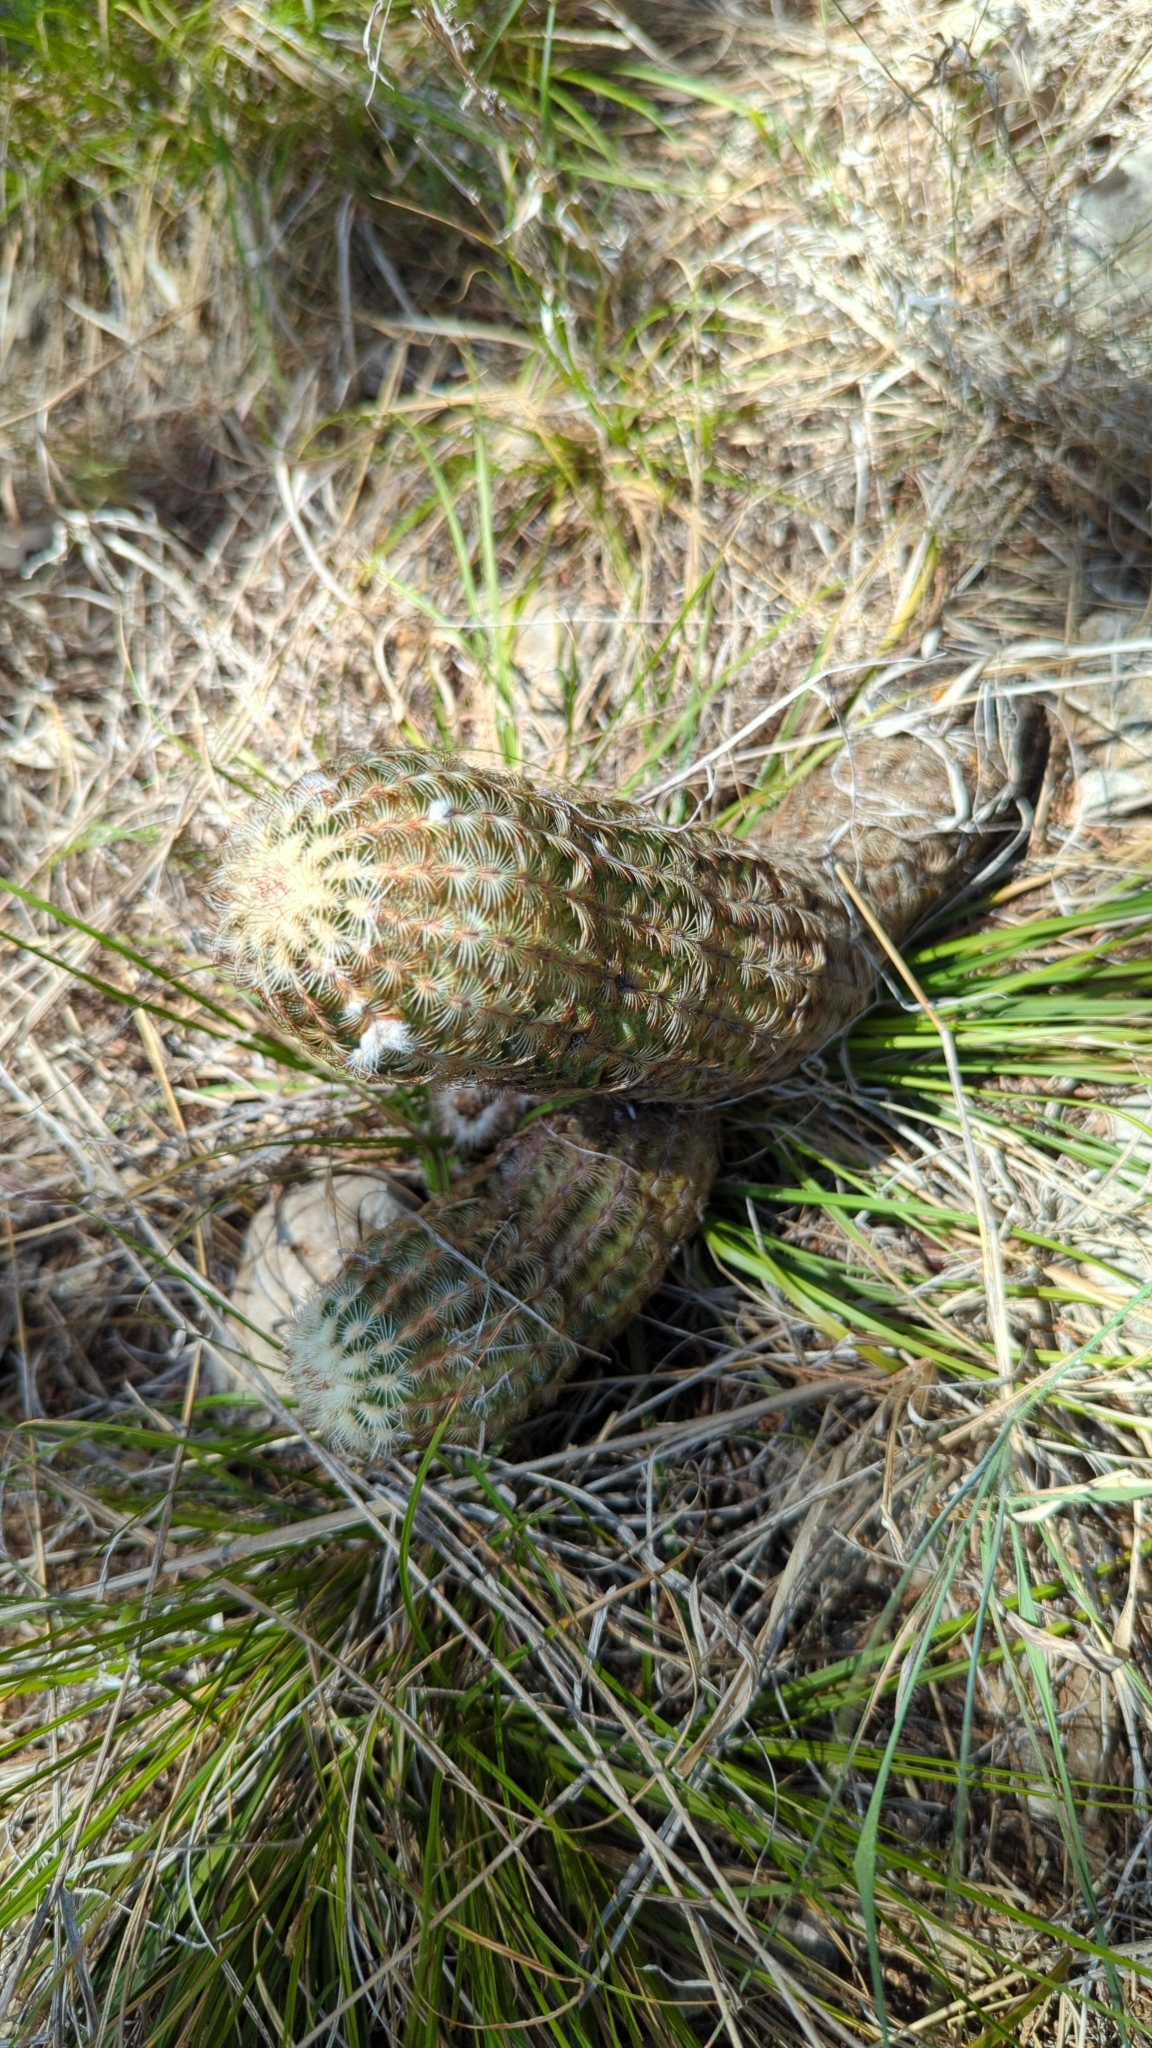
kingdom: Plantae
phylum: Tracheophyta
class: Magnoliopsida
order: Caryophyllales
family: Cactaceae
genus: Echinocereus
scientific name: Echinocereus reichenbachii
